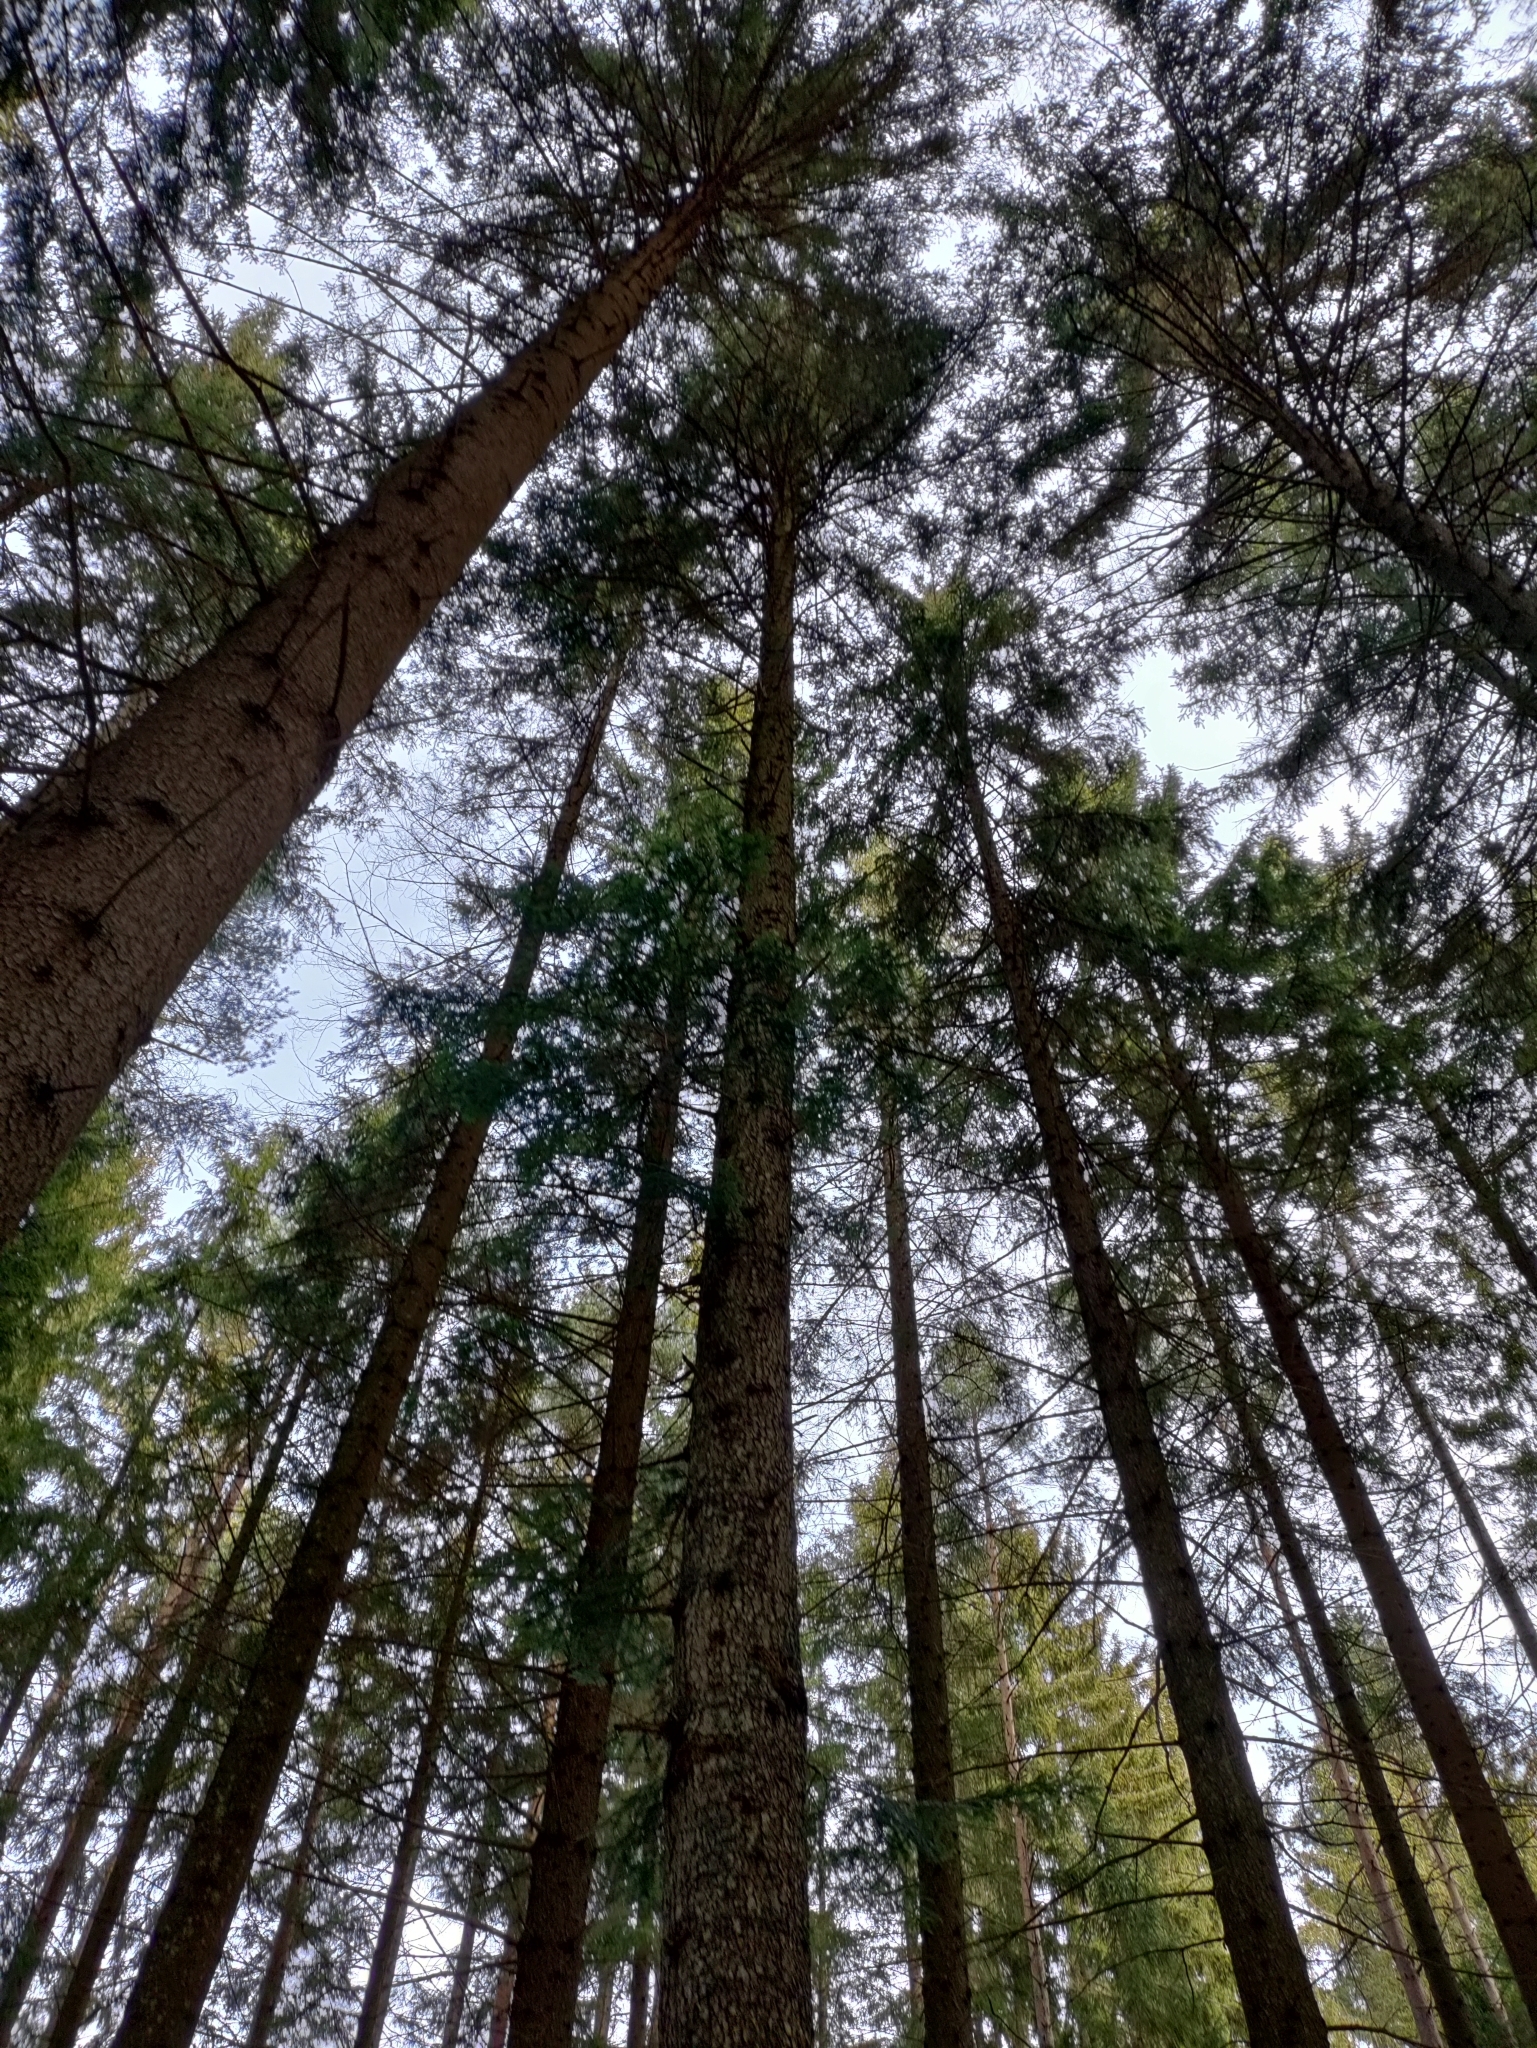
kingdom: Plantae
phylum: Tracheophyta
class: Pinopsida
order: Pinales
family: Pinaceae
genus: Abies
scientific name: Abies alba
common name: Silver fir
